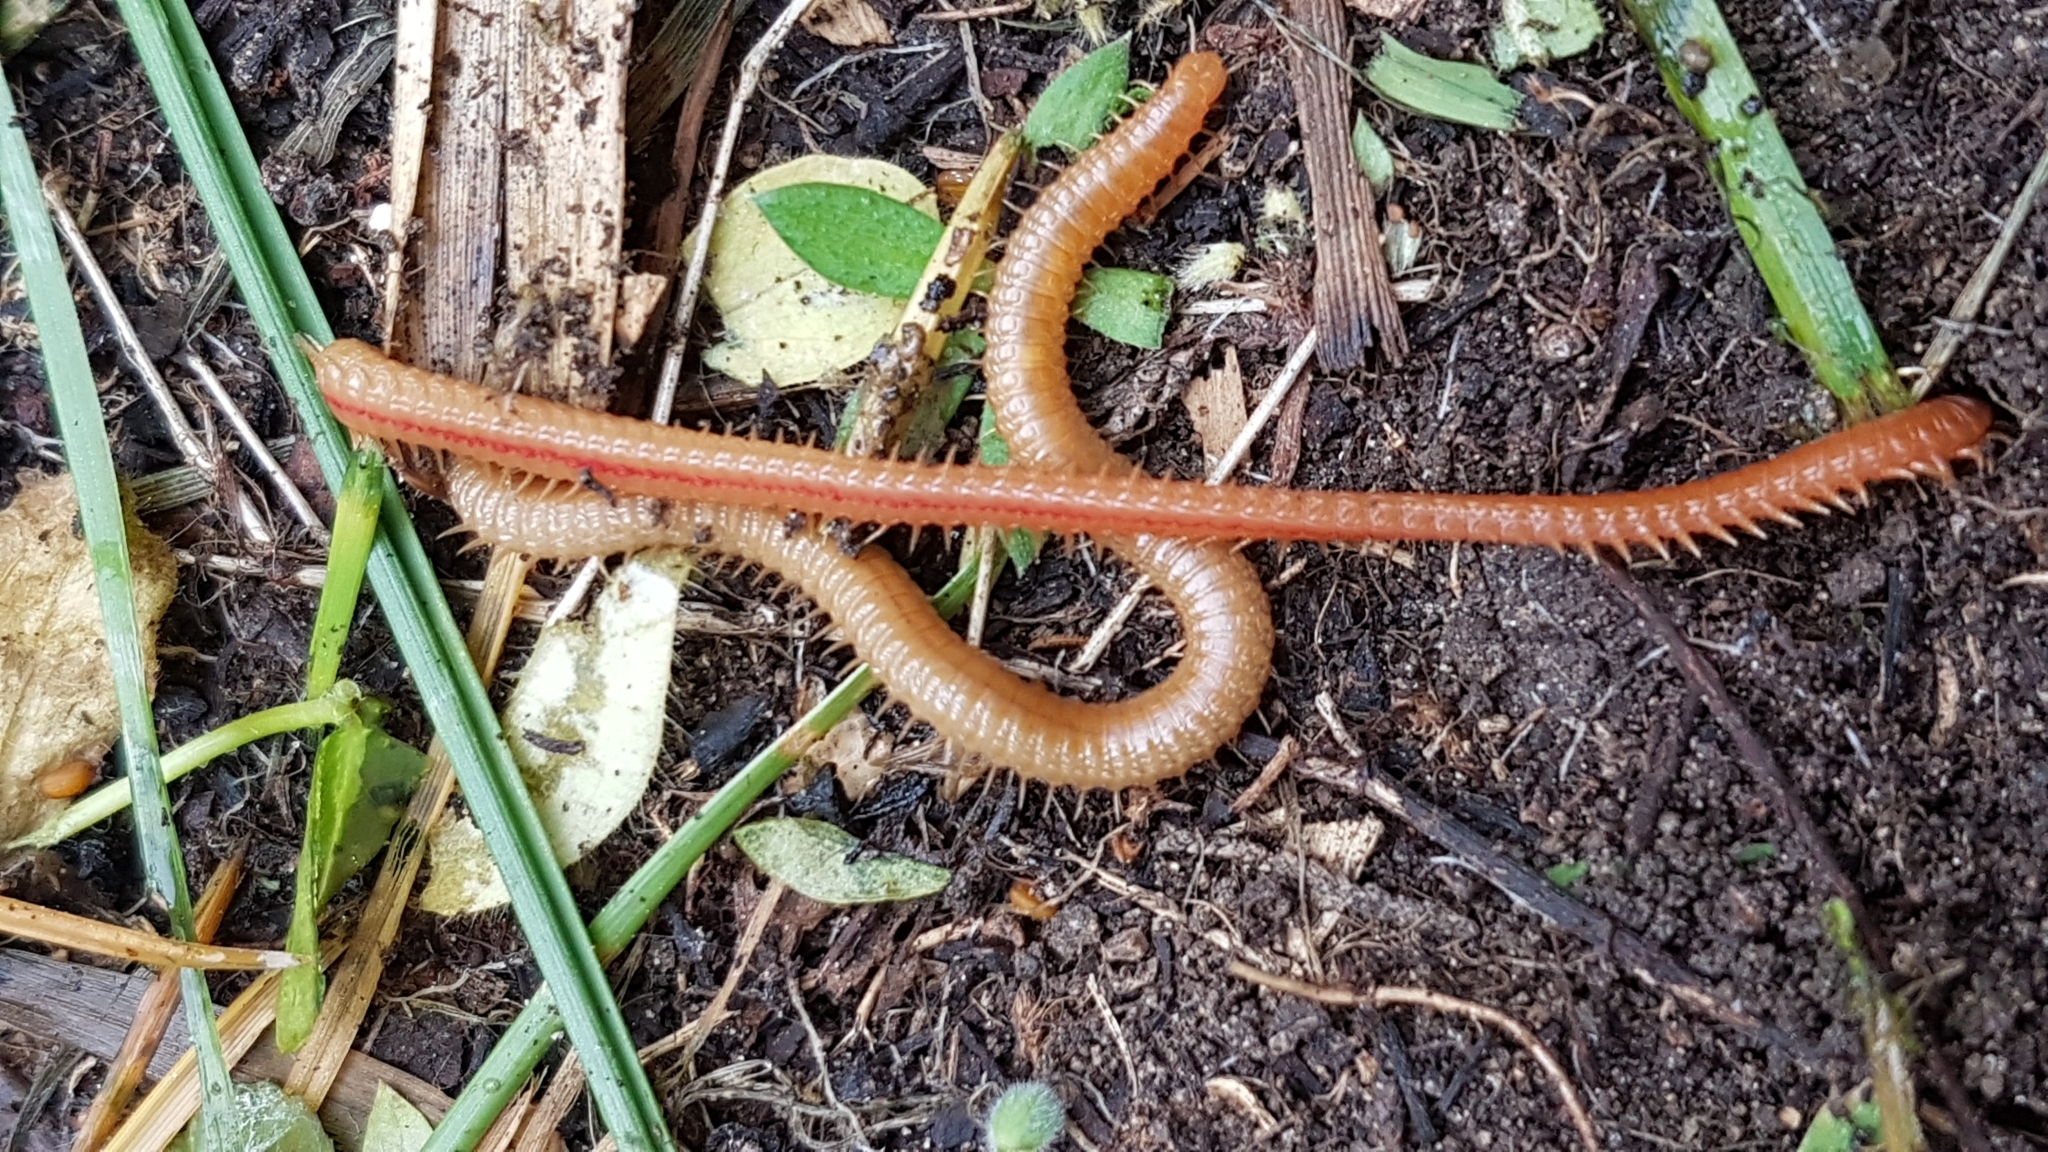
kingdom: Animalia
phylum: Arthropoda
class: Chilopoda
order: Geophilomorpha
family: Himantariidae
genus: Himantarium
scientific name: Himantarium gabrielis
